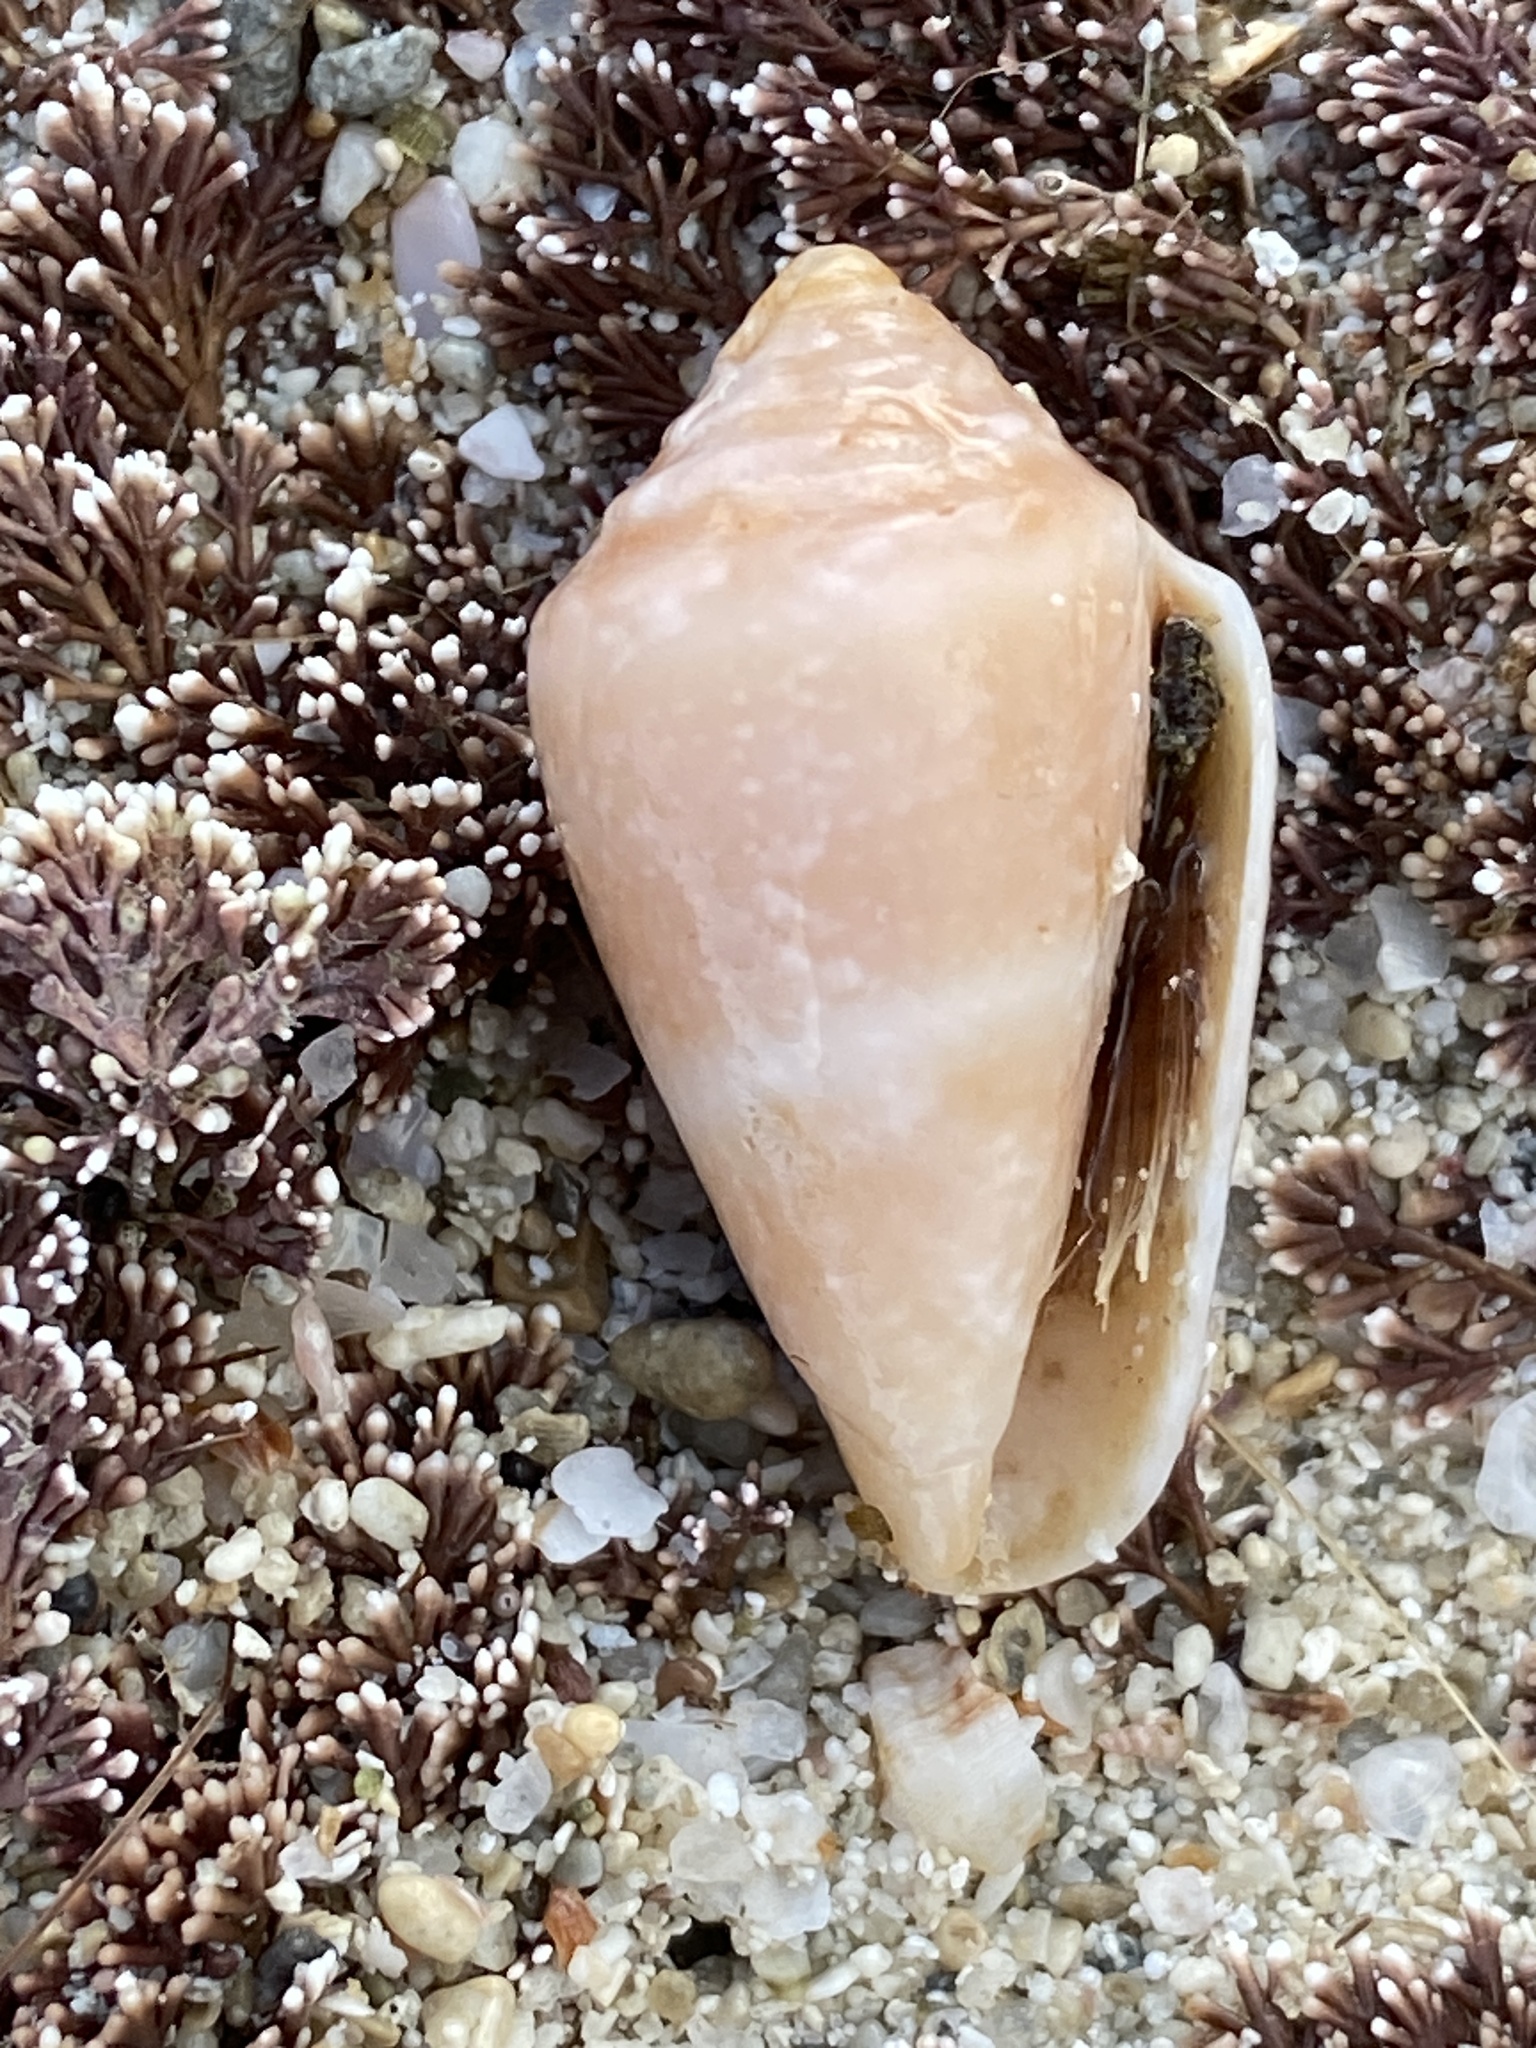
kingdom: Animalia
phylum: Mollusca
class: Gastropoda
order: Neogastropoda
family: Conidae
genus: Conus
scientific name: Conus ventricosus
